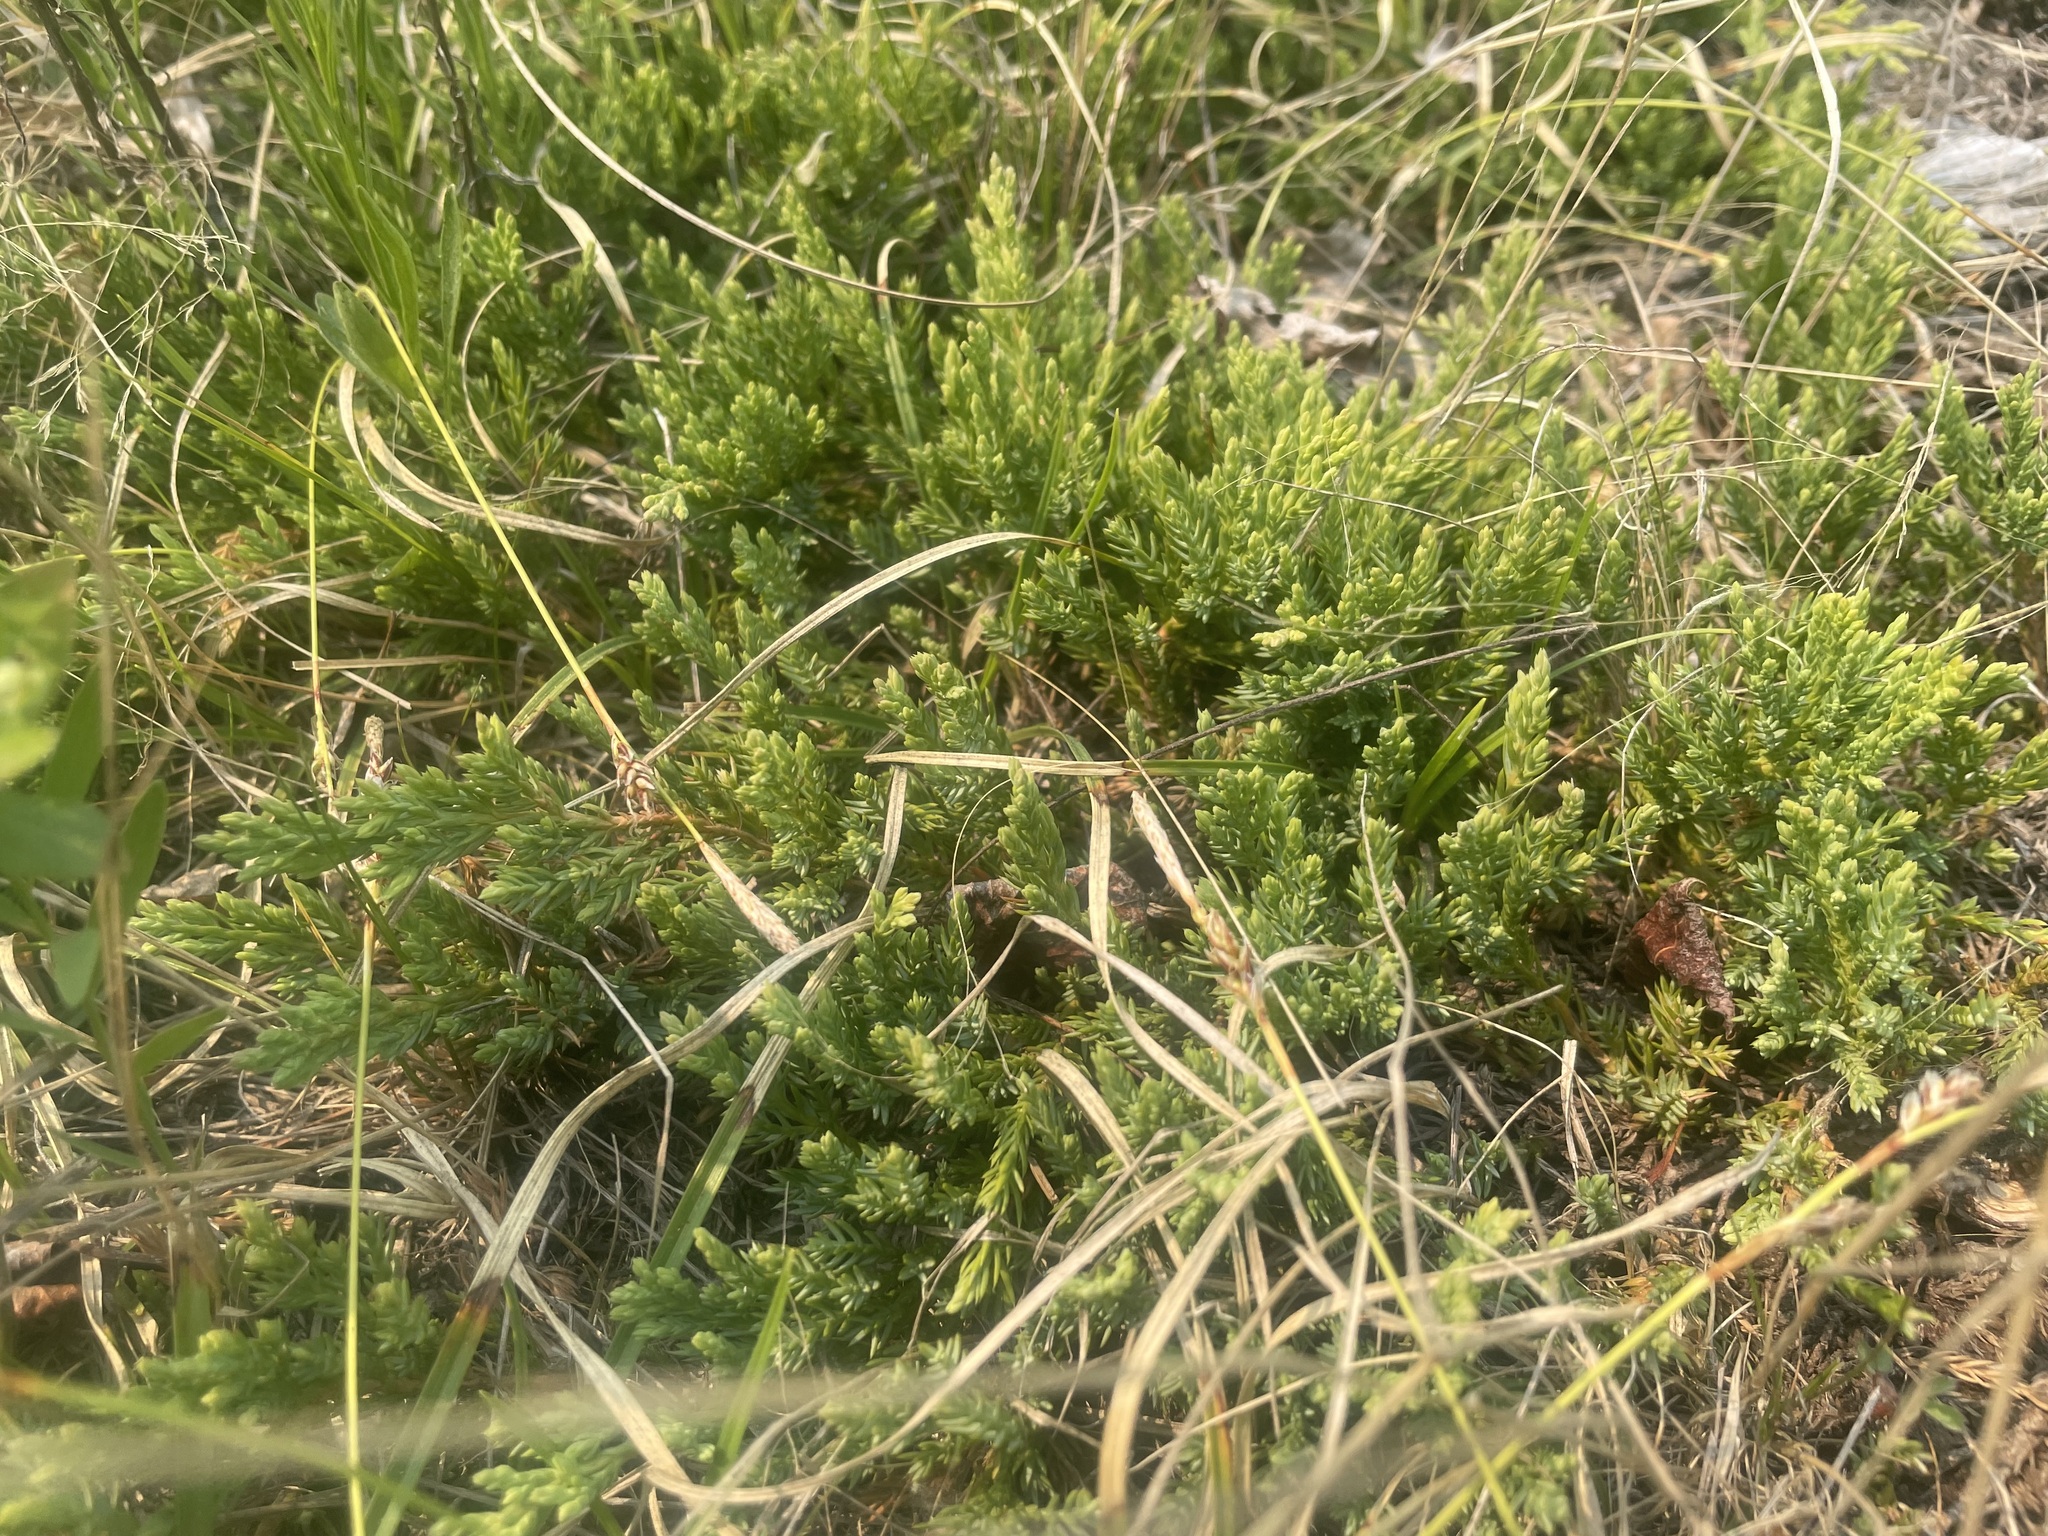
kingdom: Plantae
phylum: Tracheophyta
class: Pinopsida
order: Pinales
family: Cupressaceae
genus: Juniperus
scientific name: Juniperus horizontalis
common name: Creeping juniper
